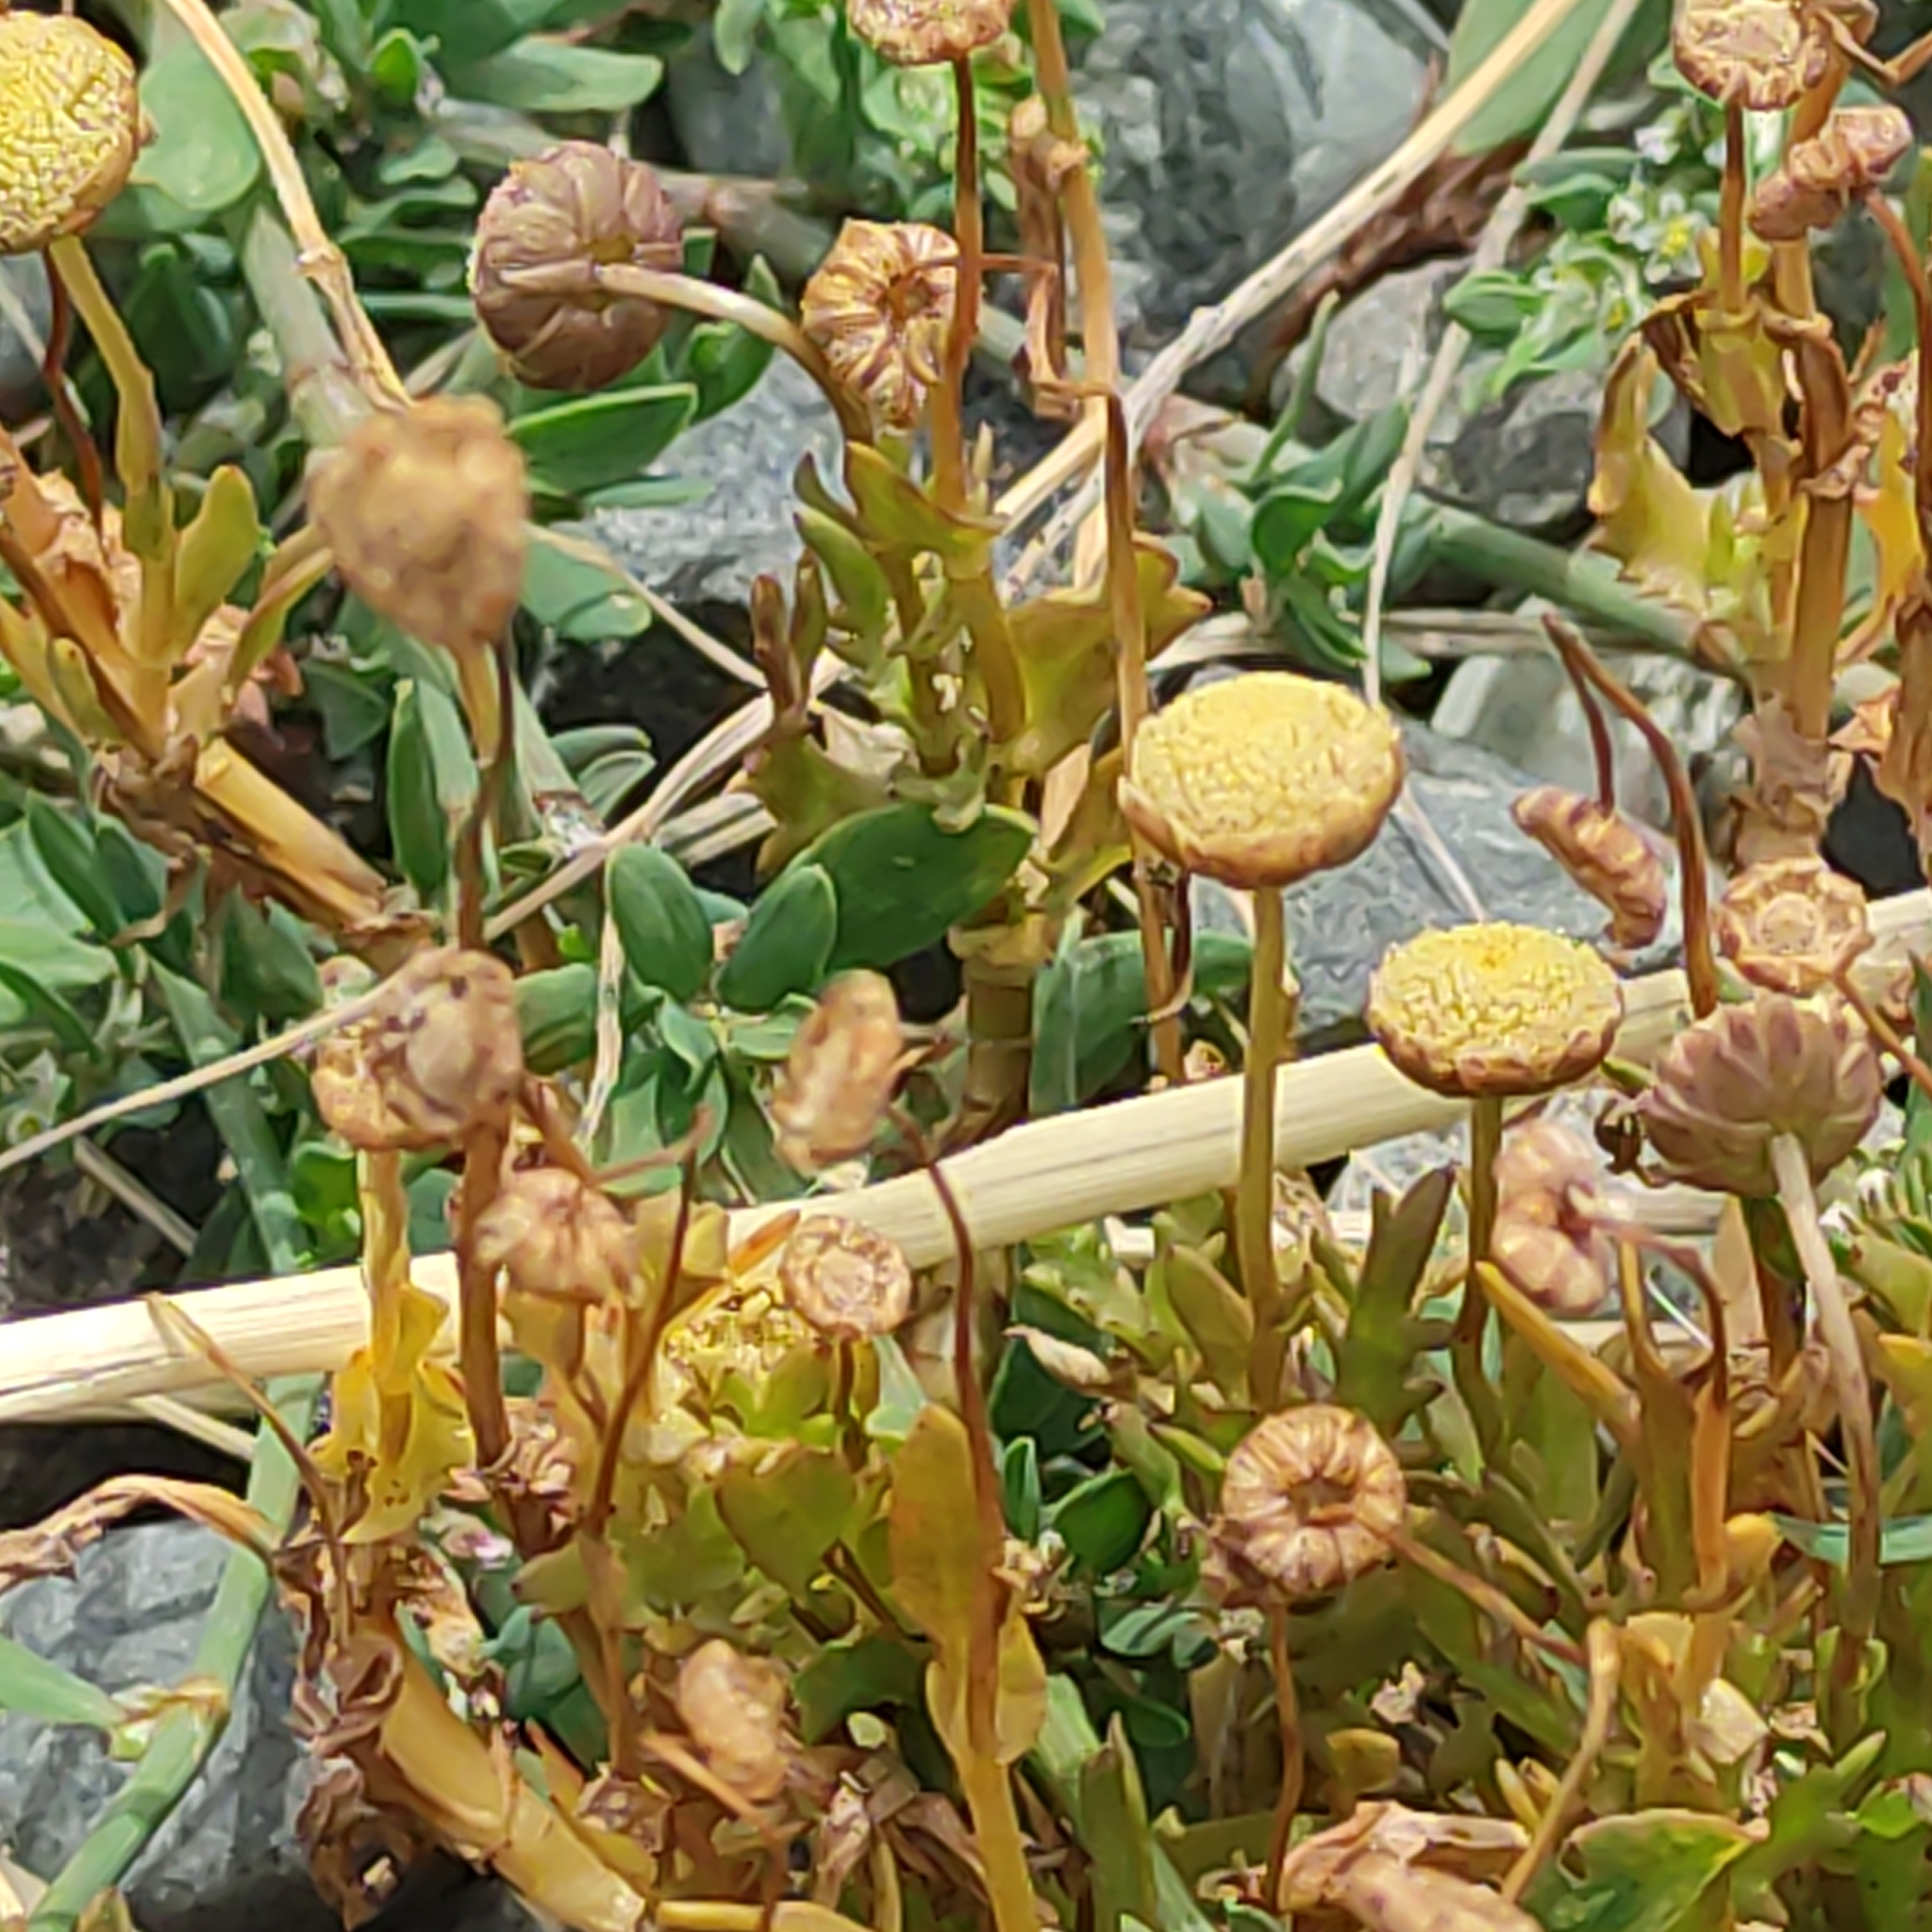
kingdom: Plantae
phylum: Tracheophyta
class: Magnoliopsida
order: Asterales
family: Asteraceae
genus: Cotula
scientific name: Cotula coronopifolia
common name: Buttonweed
